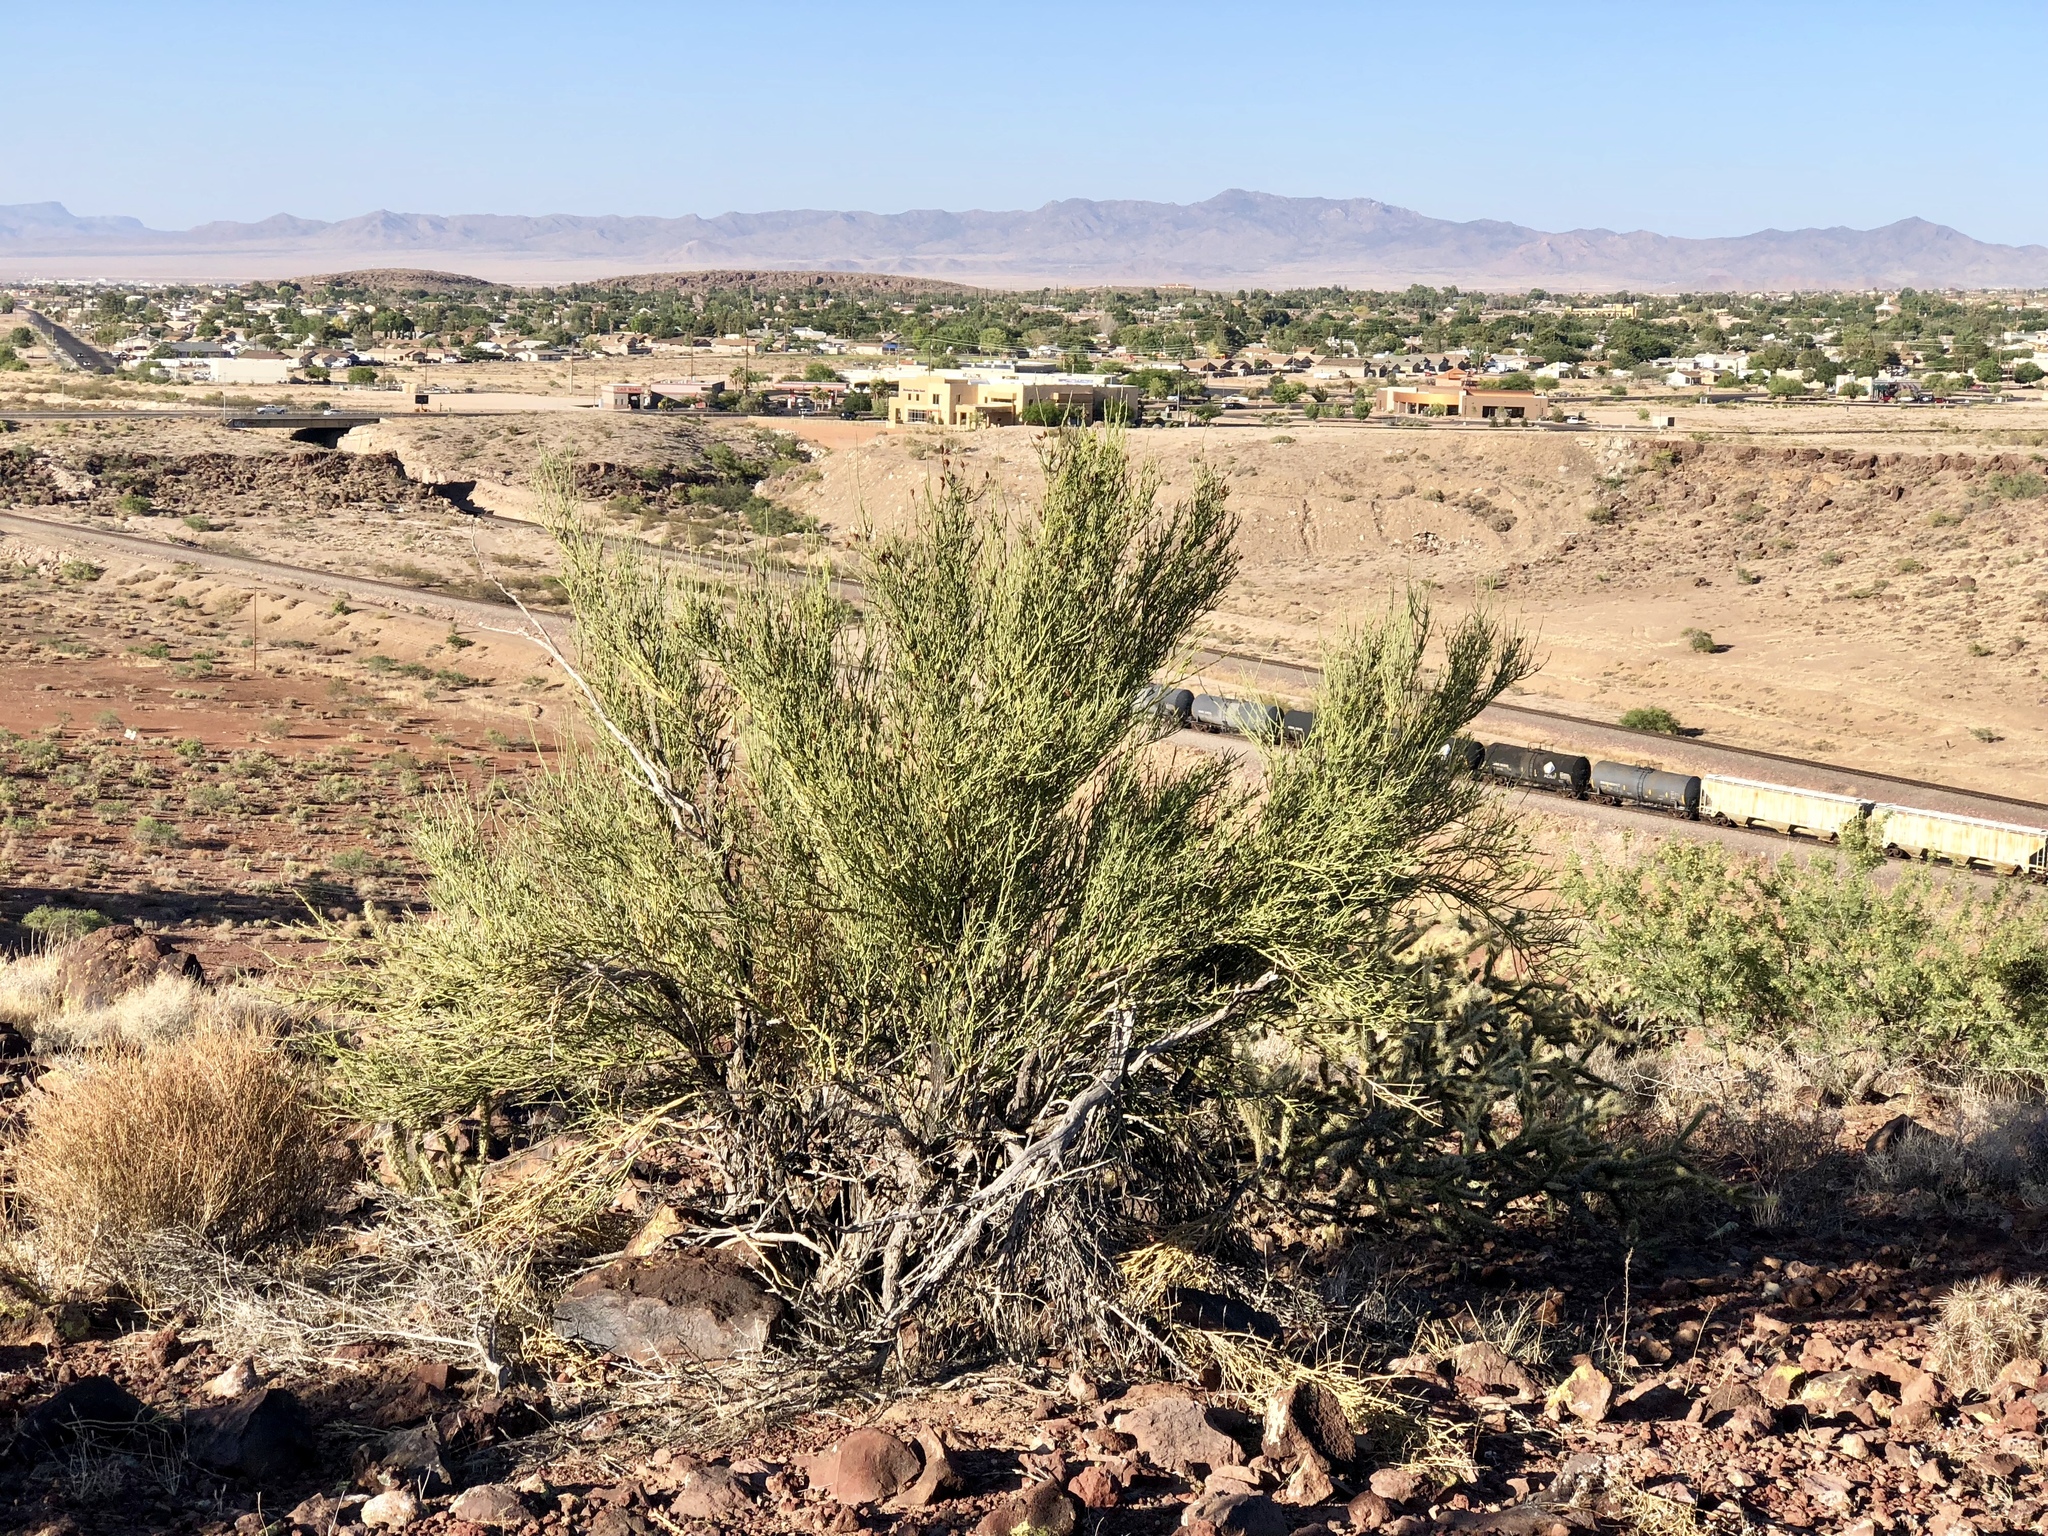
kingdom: Plantae
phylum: Tracheophyta
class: Magnoliopsida
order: Celastrales
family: Celastraceae
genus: Canotia
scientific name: Canotia holacantha
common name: Crucifixion thorns
